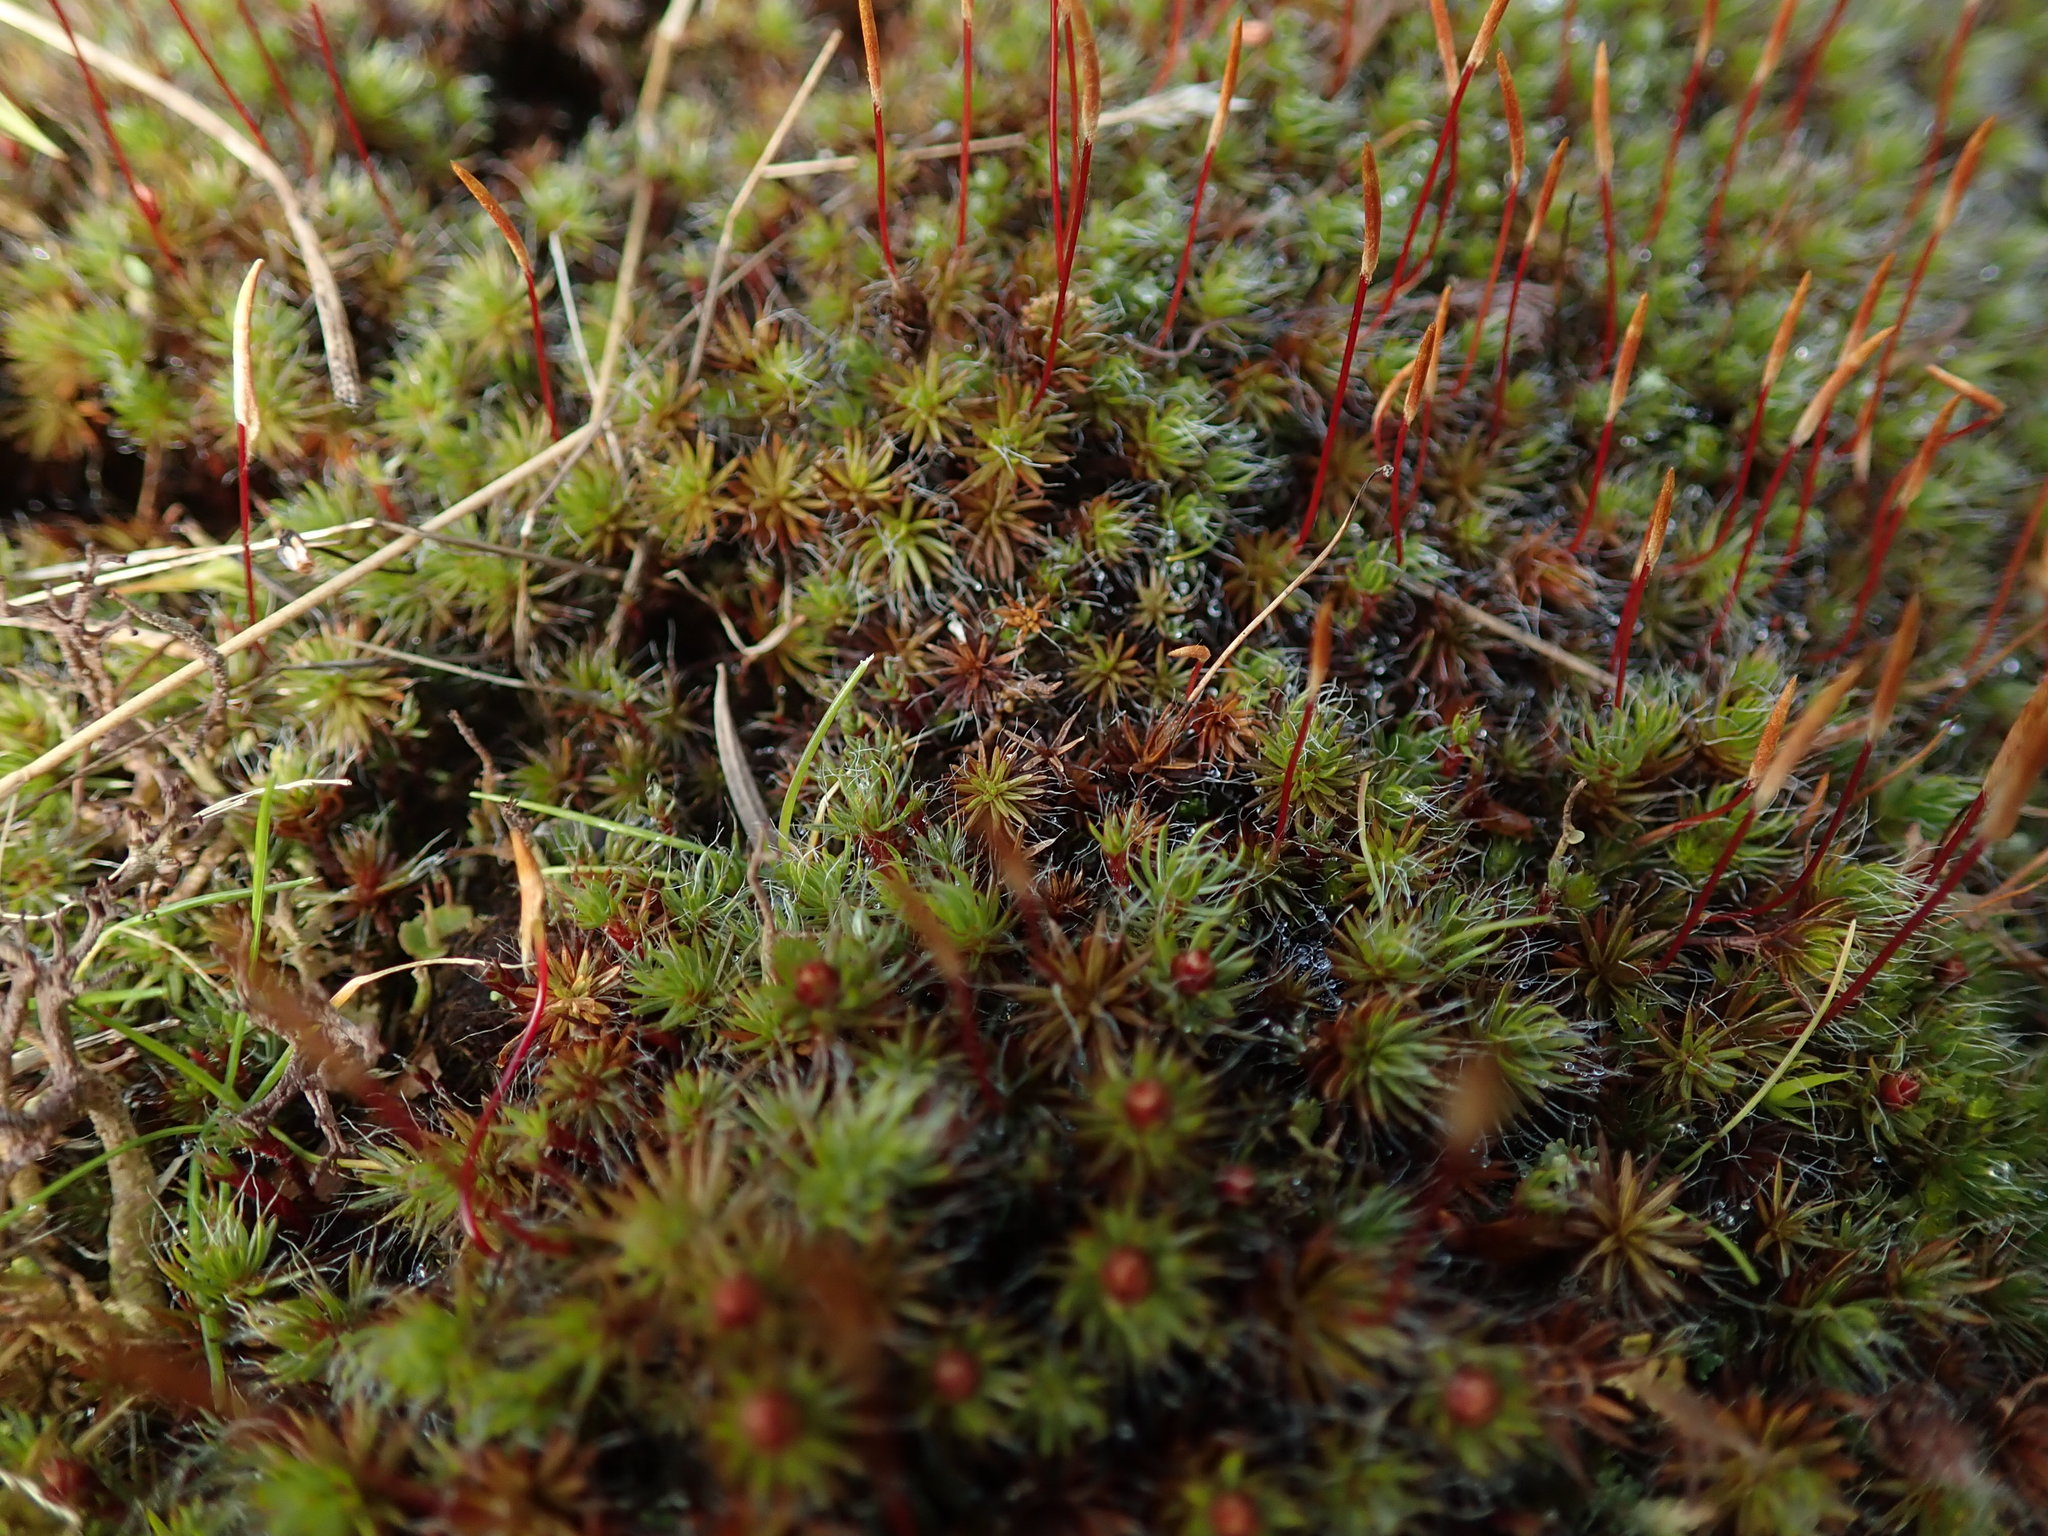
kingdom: Plantae
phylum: Bryophyta
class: Polytrichopsida
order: Polytrichales
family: Polytrichaceae
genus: Polytrichum
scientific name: Polytrichum piliferum
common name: Bristly haircap
